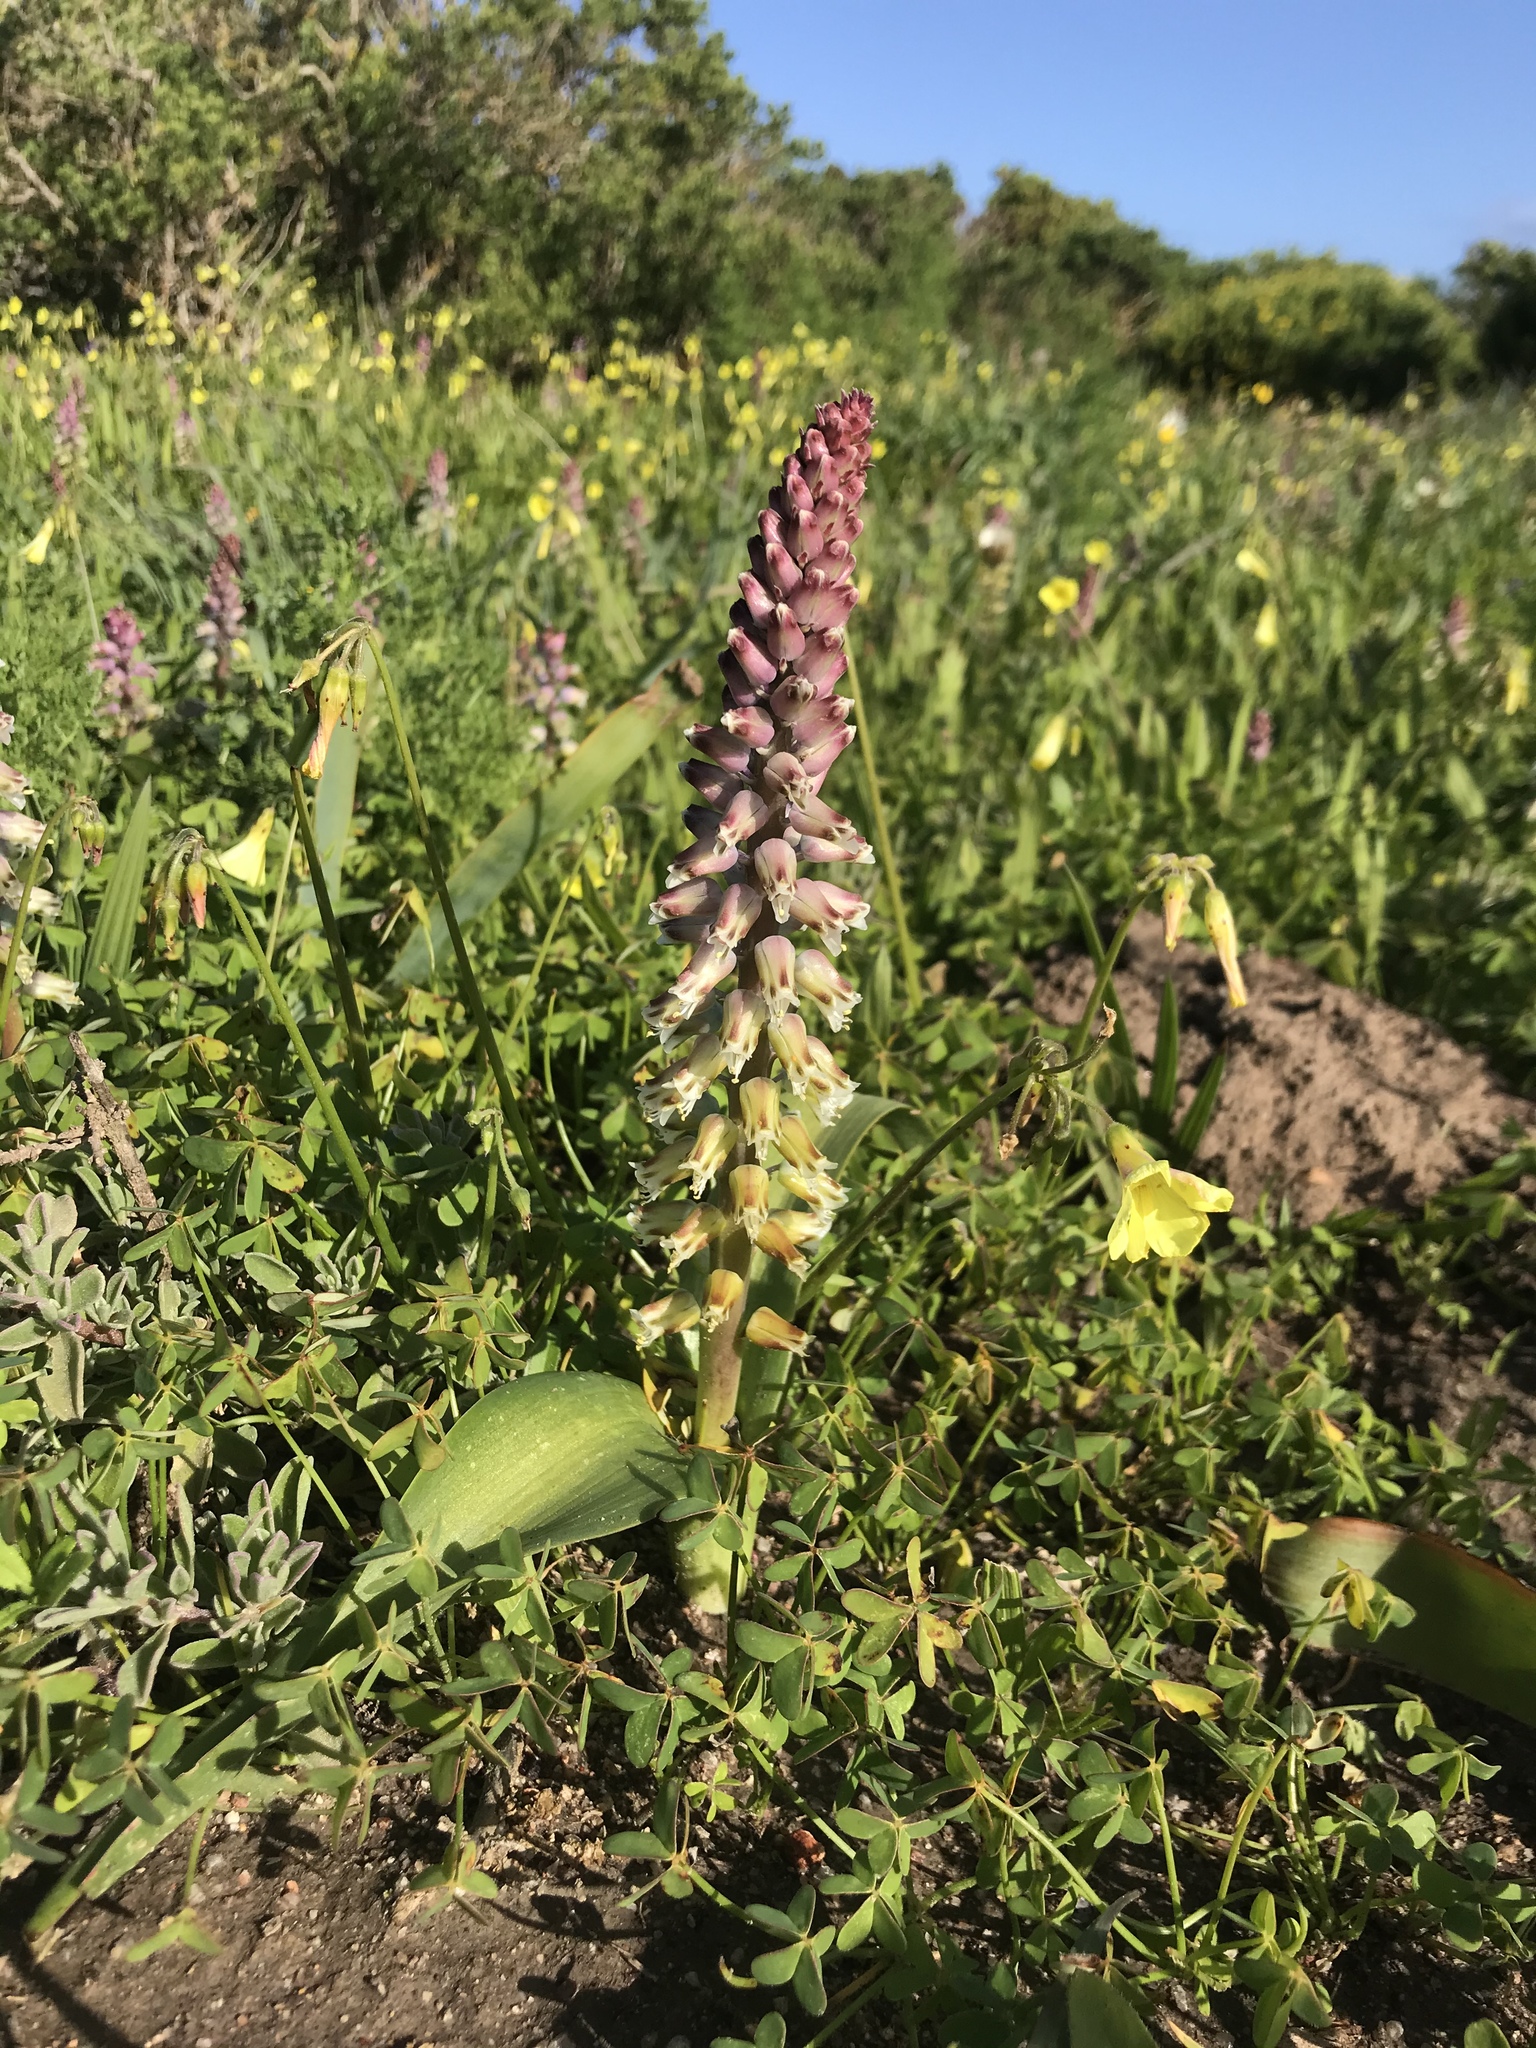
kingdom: Plantae
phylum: Tracheophyta
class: Liliopsida
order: Asparagales
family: Asparagaceae
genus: Lachenalia
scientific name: Lachenalia pallida
